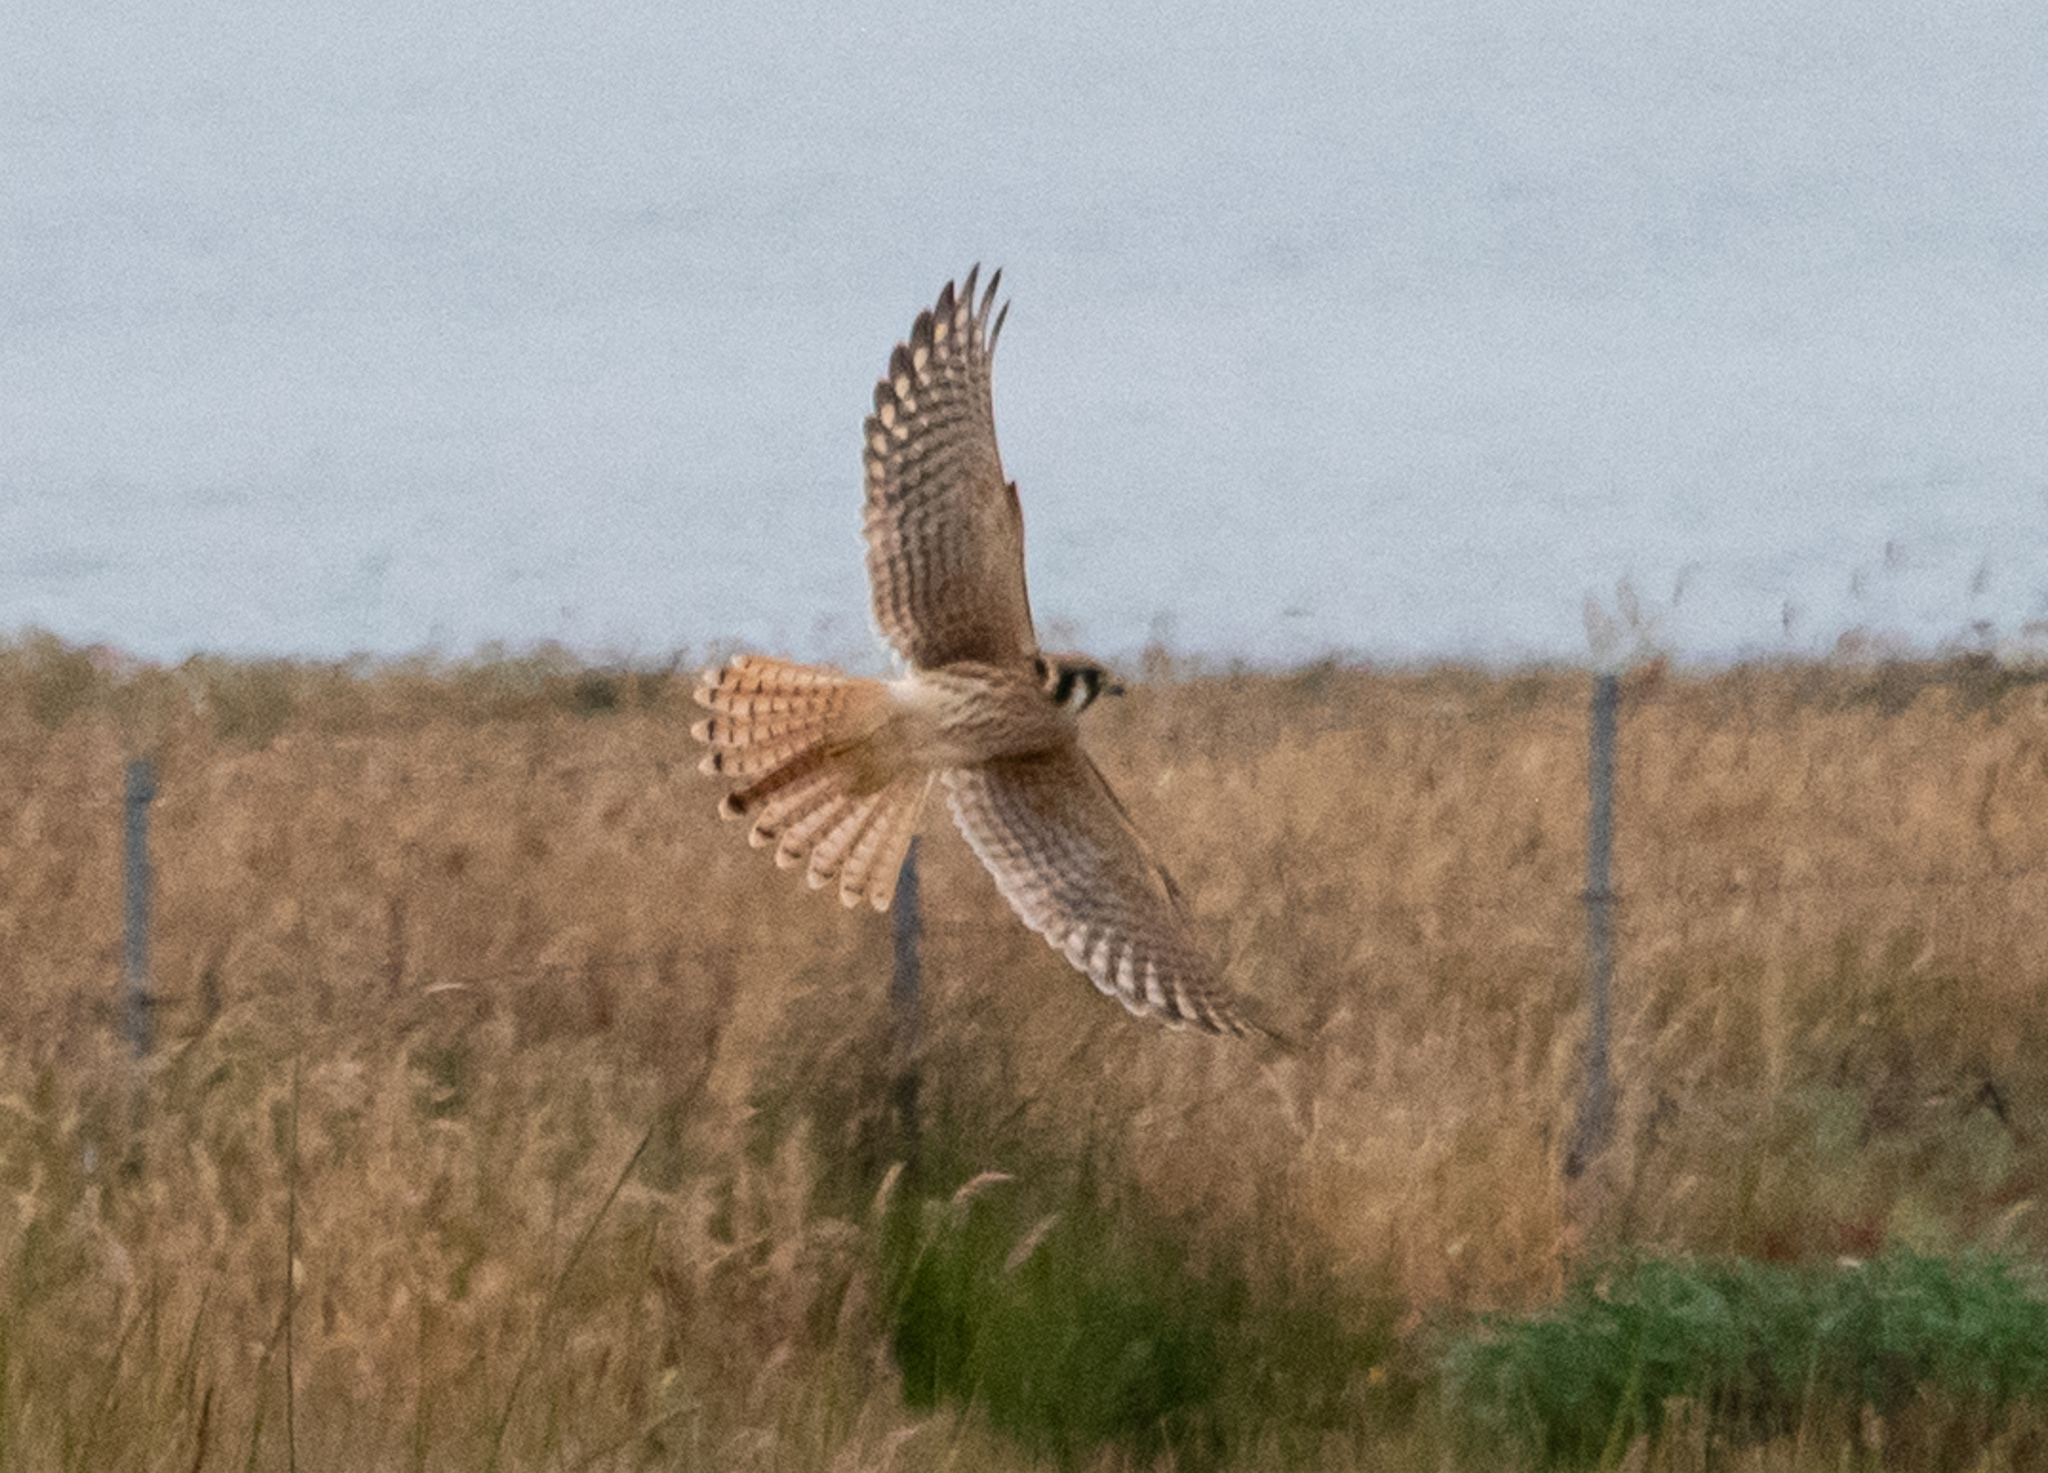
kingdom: Animalia
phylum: Chordata
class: Aves
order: Falconiformes
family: Falconidae
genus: Falco
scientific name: Falco sparverius
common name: American kestrel
